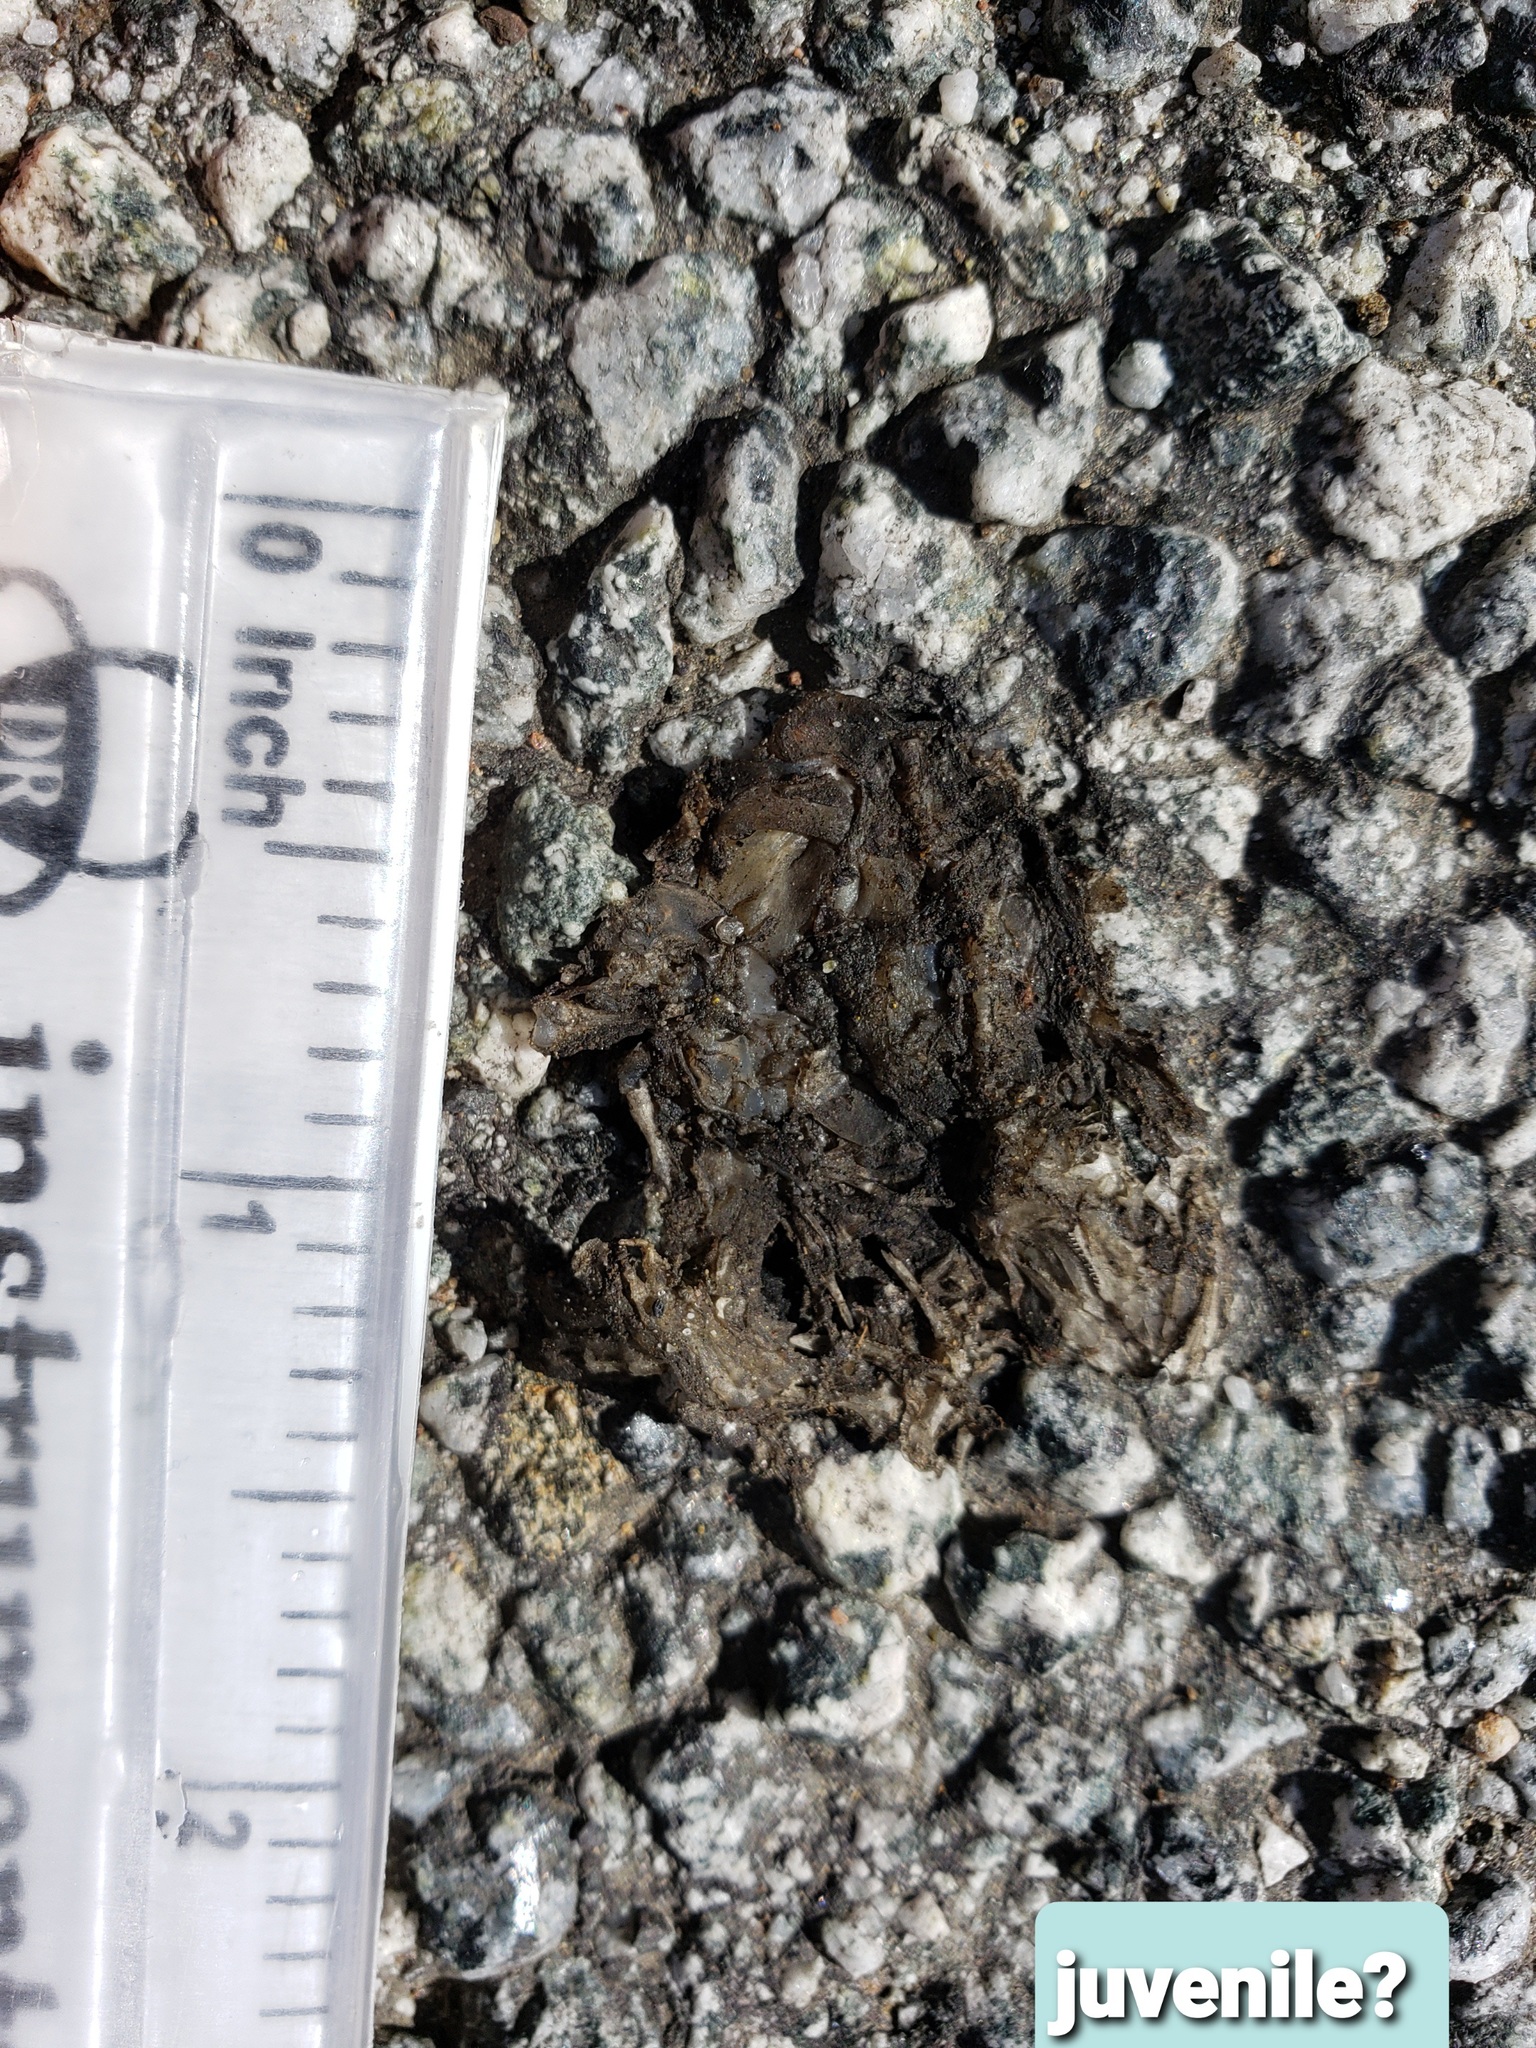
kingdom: Animalia
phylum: Chordata
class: Amphibia
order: Caudata
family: Salamandridae
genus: Taricha
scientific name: Taricha
